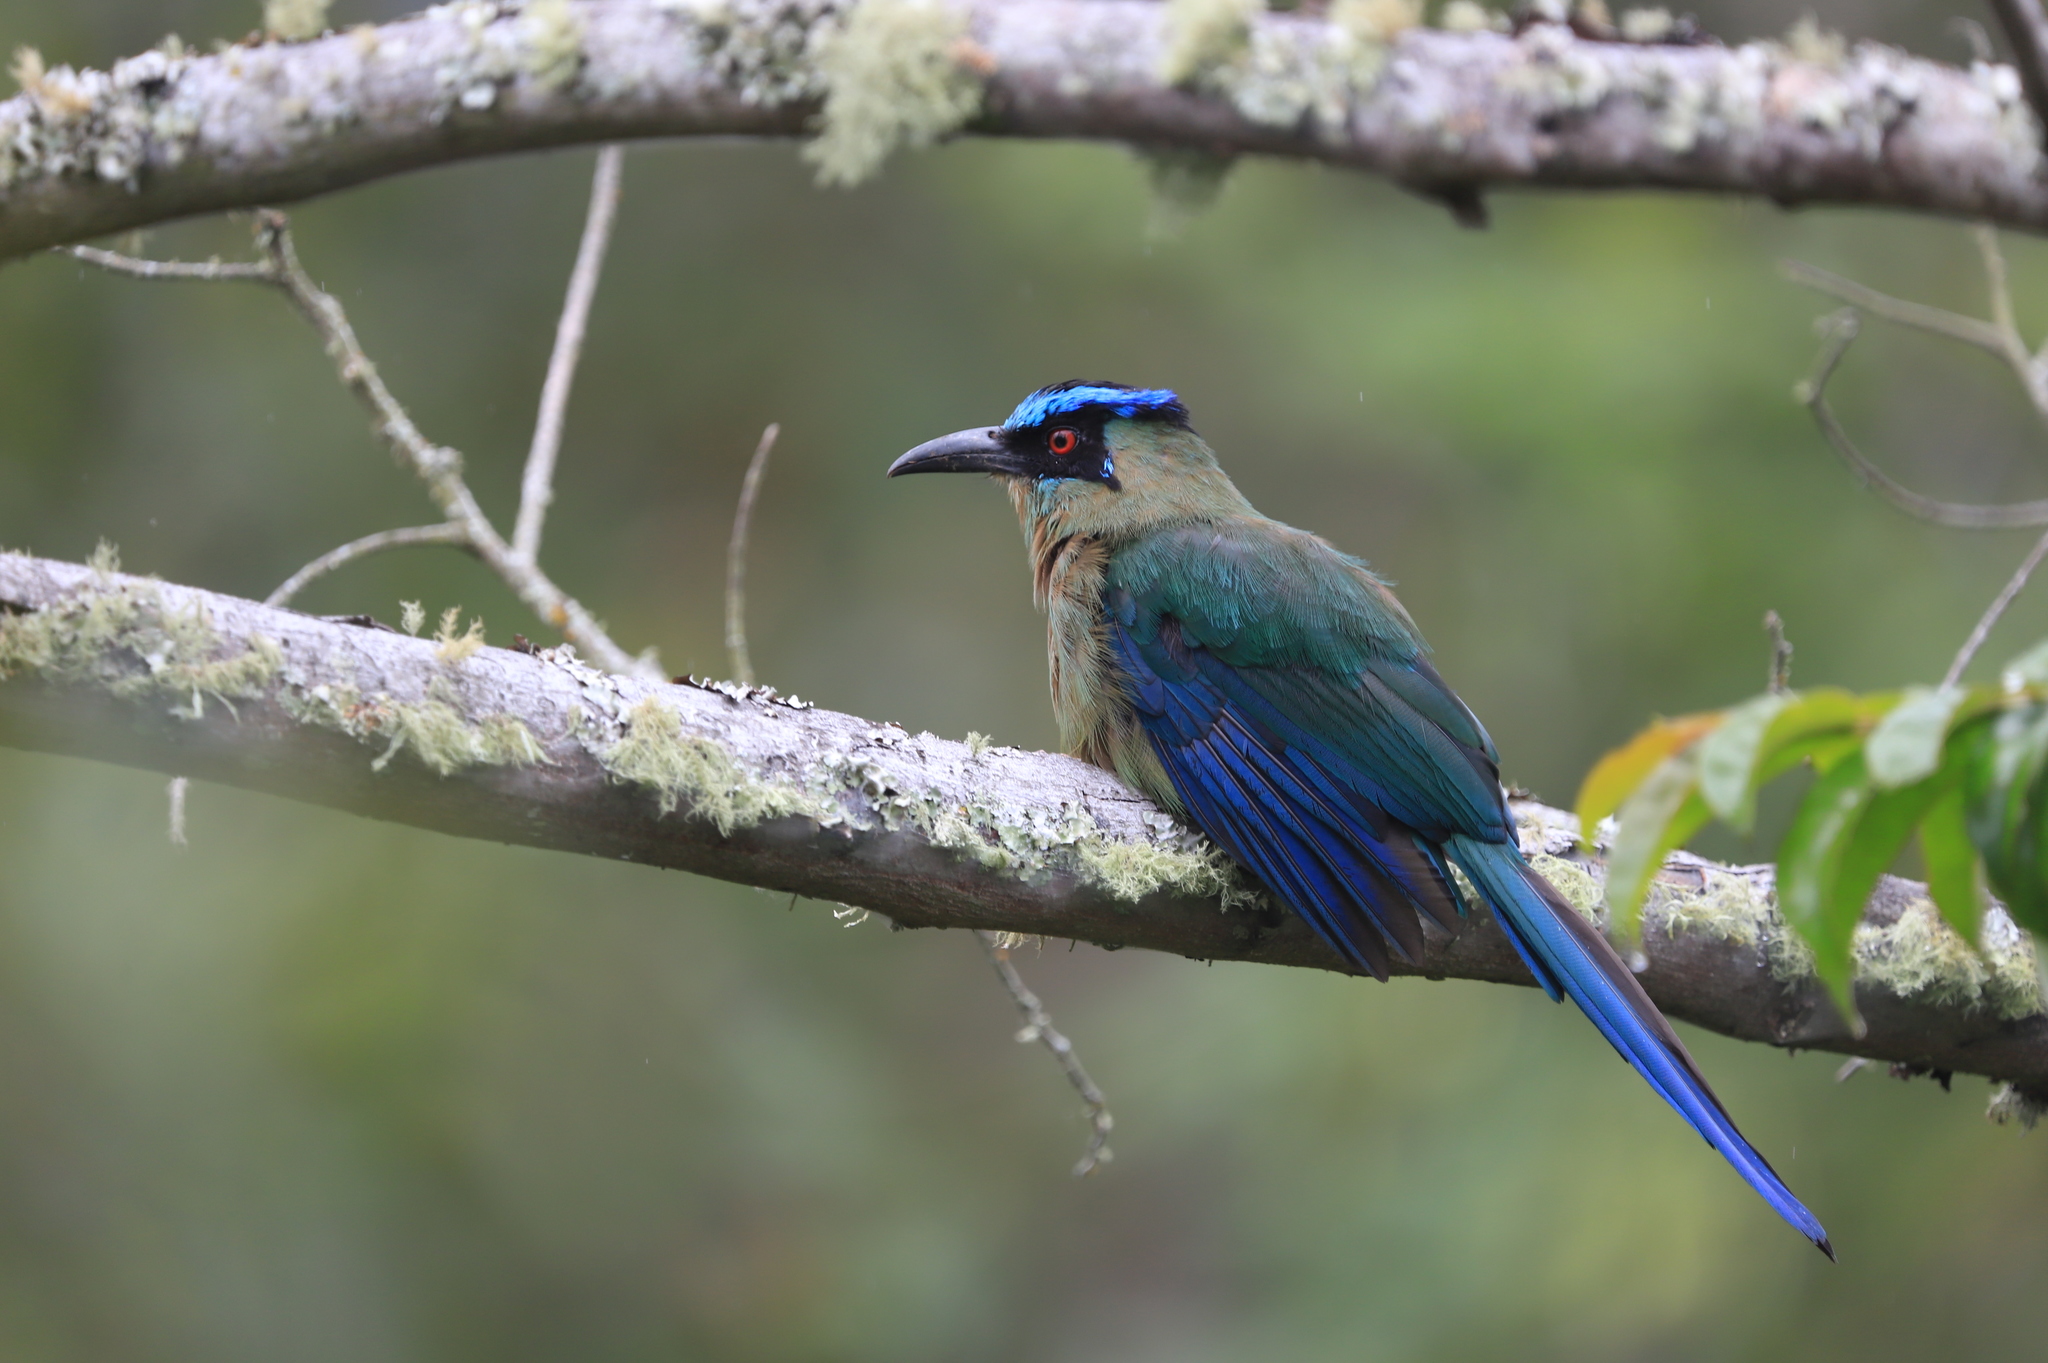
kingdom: Animalia
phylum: Chordata
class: Aves
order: Coraciiformes
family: Momotidae
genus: Momotus
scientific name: Momotus aequatorialis
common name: Andean motmot
